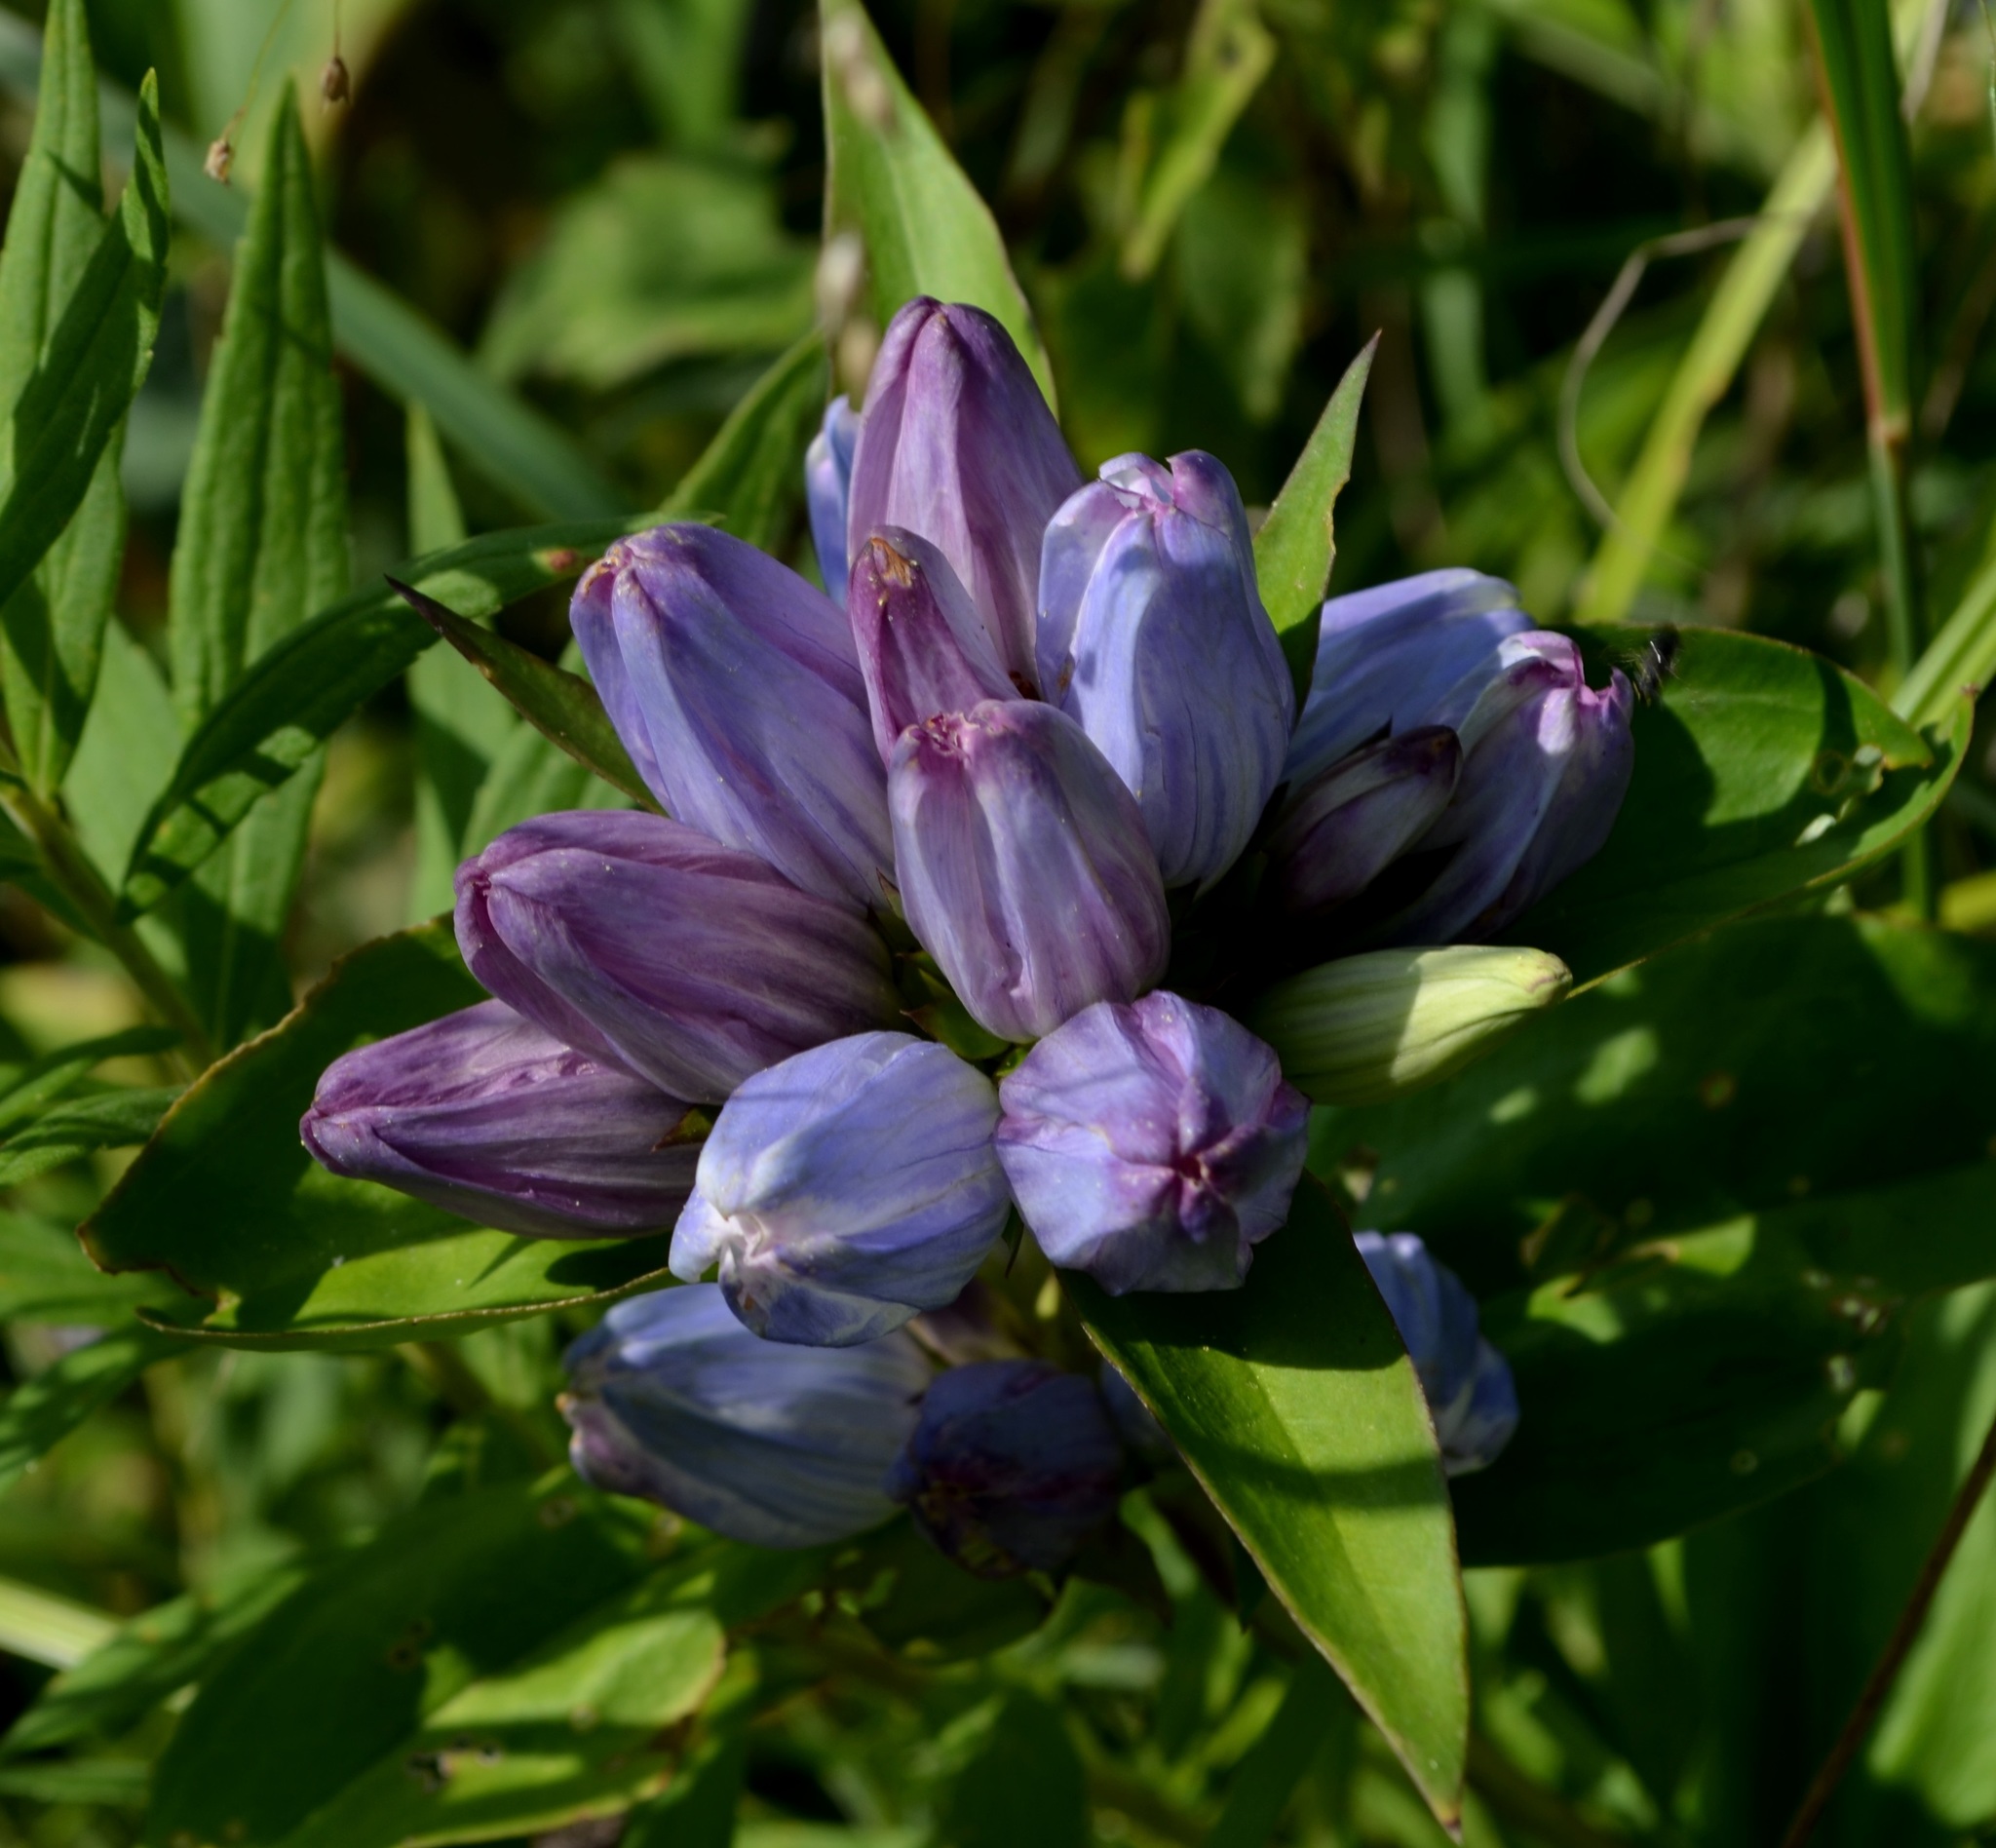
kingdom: Plantae
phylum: Tracheophyta
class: Magnoliopsida
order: Gentianales
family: Gentianaceae
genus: Gentiana
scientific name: Gentiana andrewsii
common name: Bottle gentian
